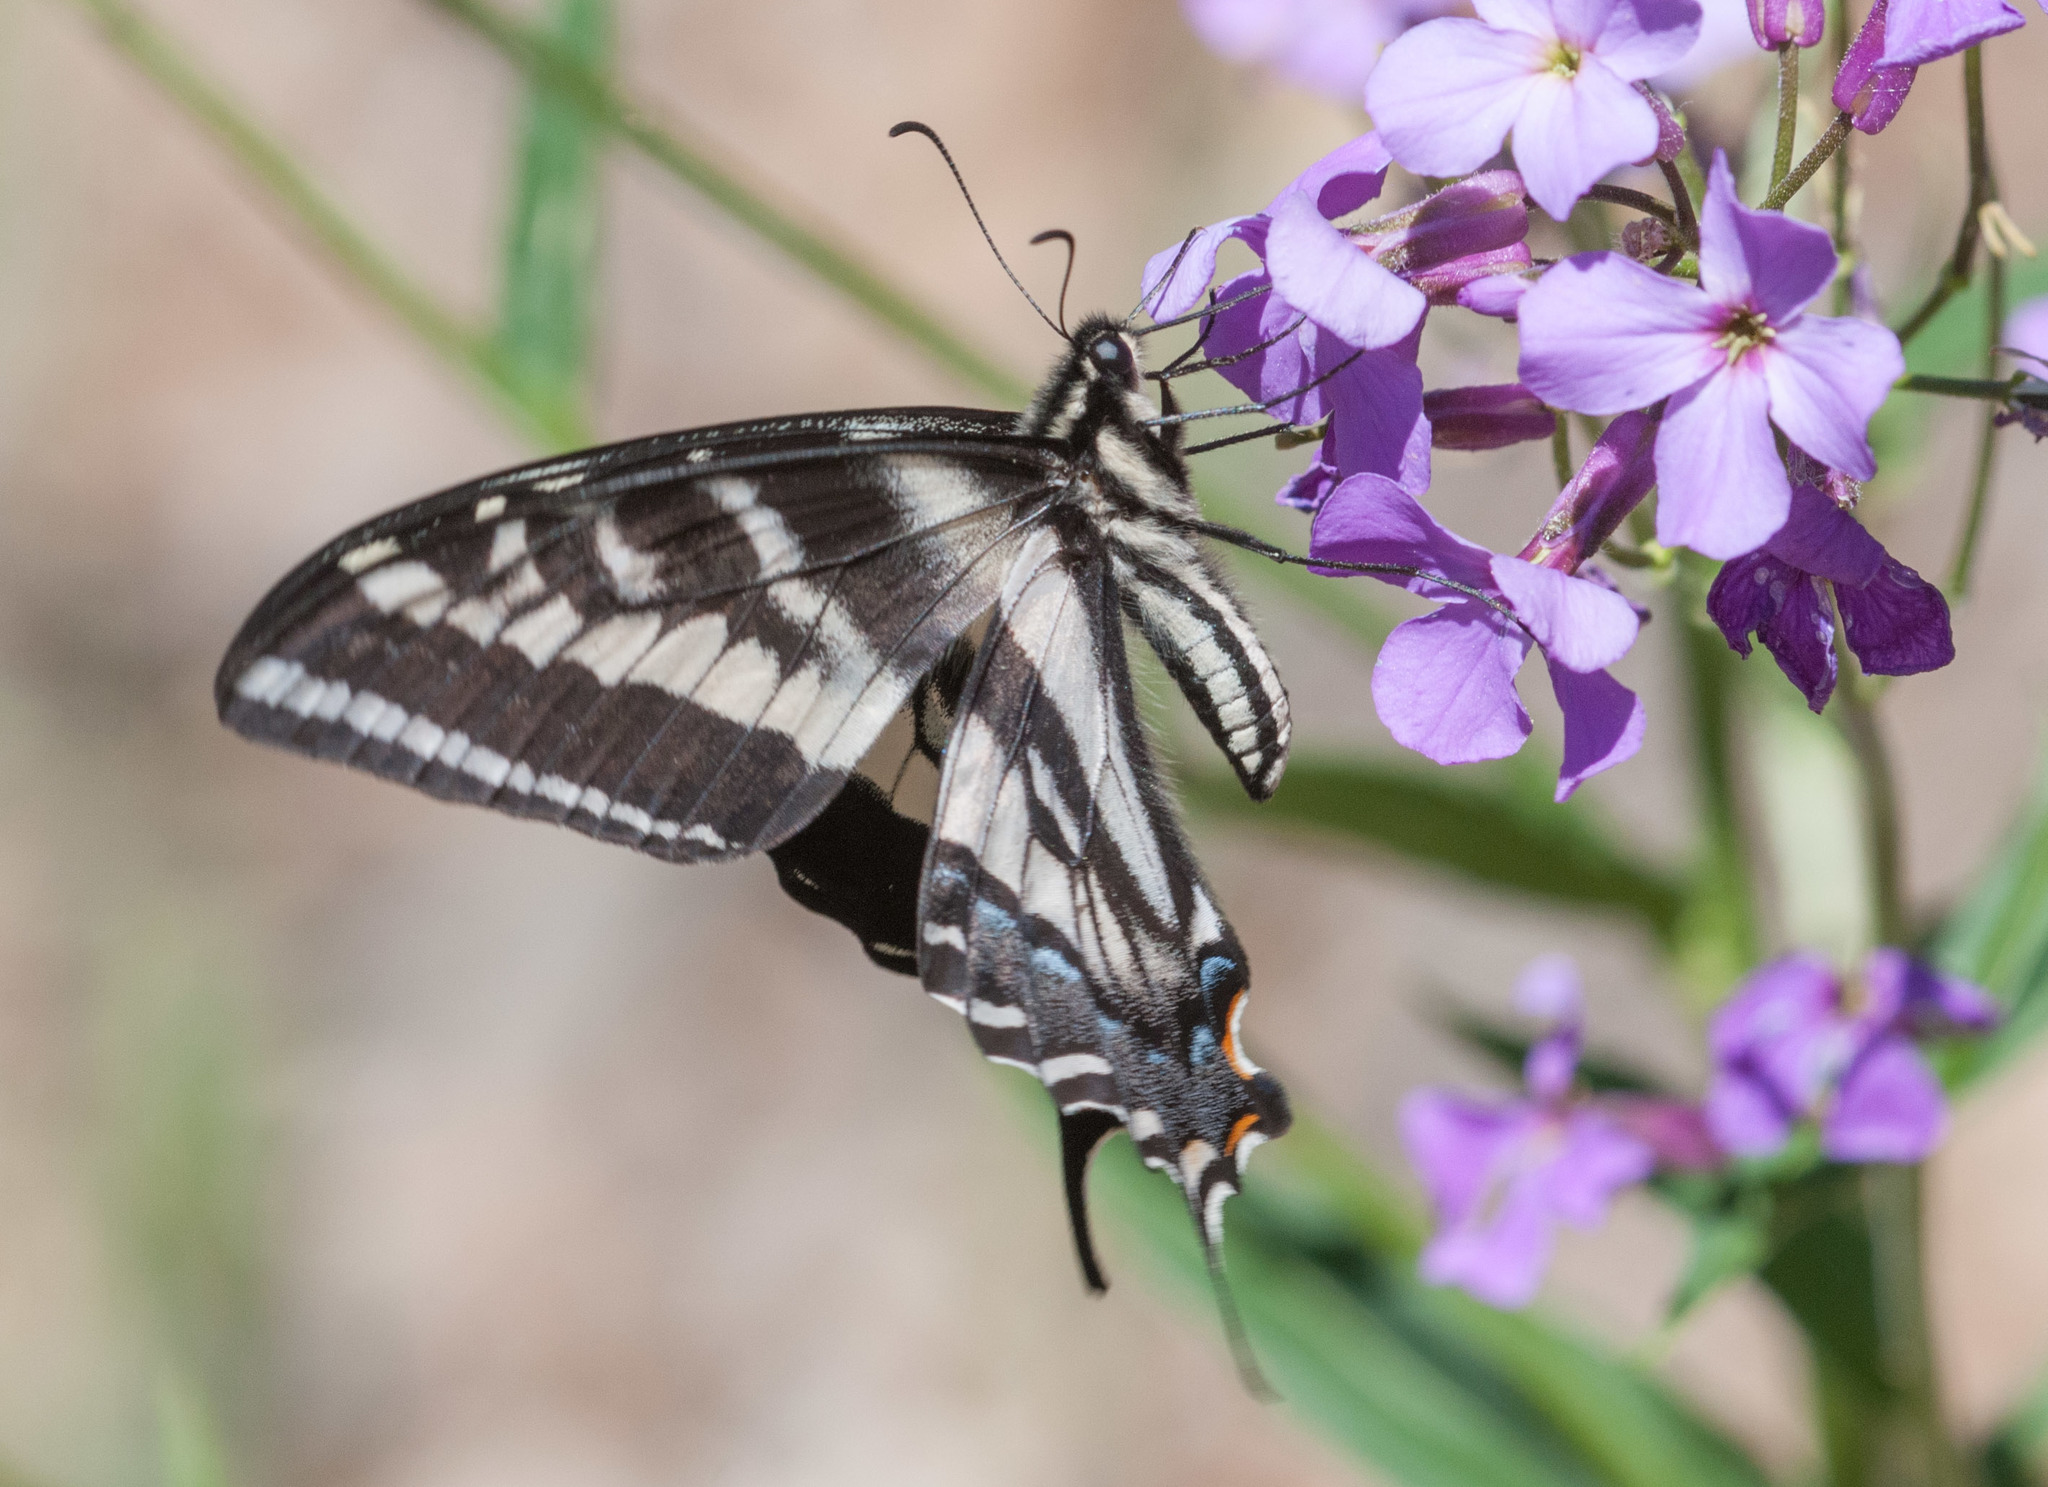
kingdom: Animalia
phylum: Arthropoda
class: Insecta
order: Lepidoptera
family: Papilionidae
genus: Papilio
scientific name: Papilio eurymedon
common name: Pale tiger swallowtail
